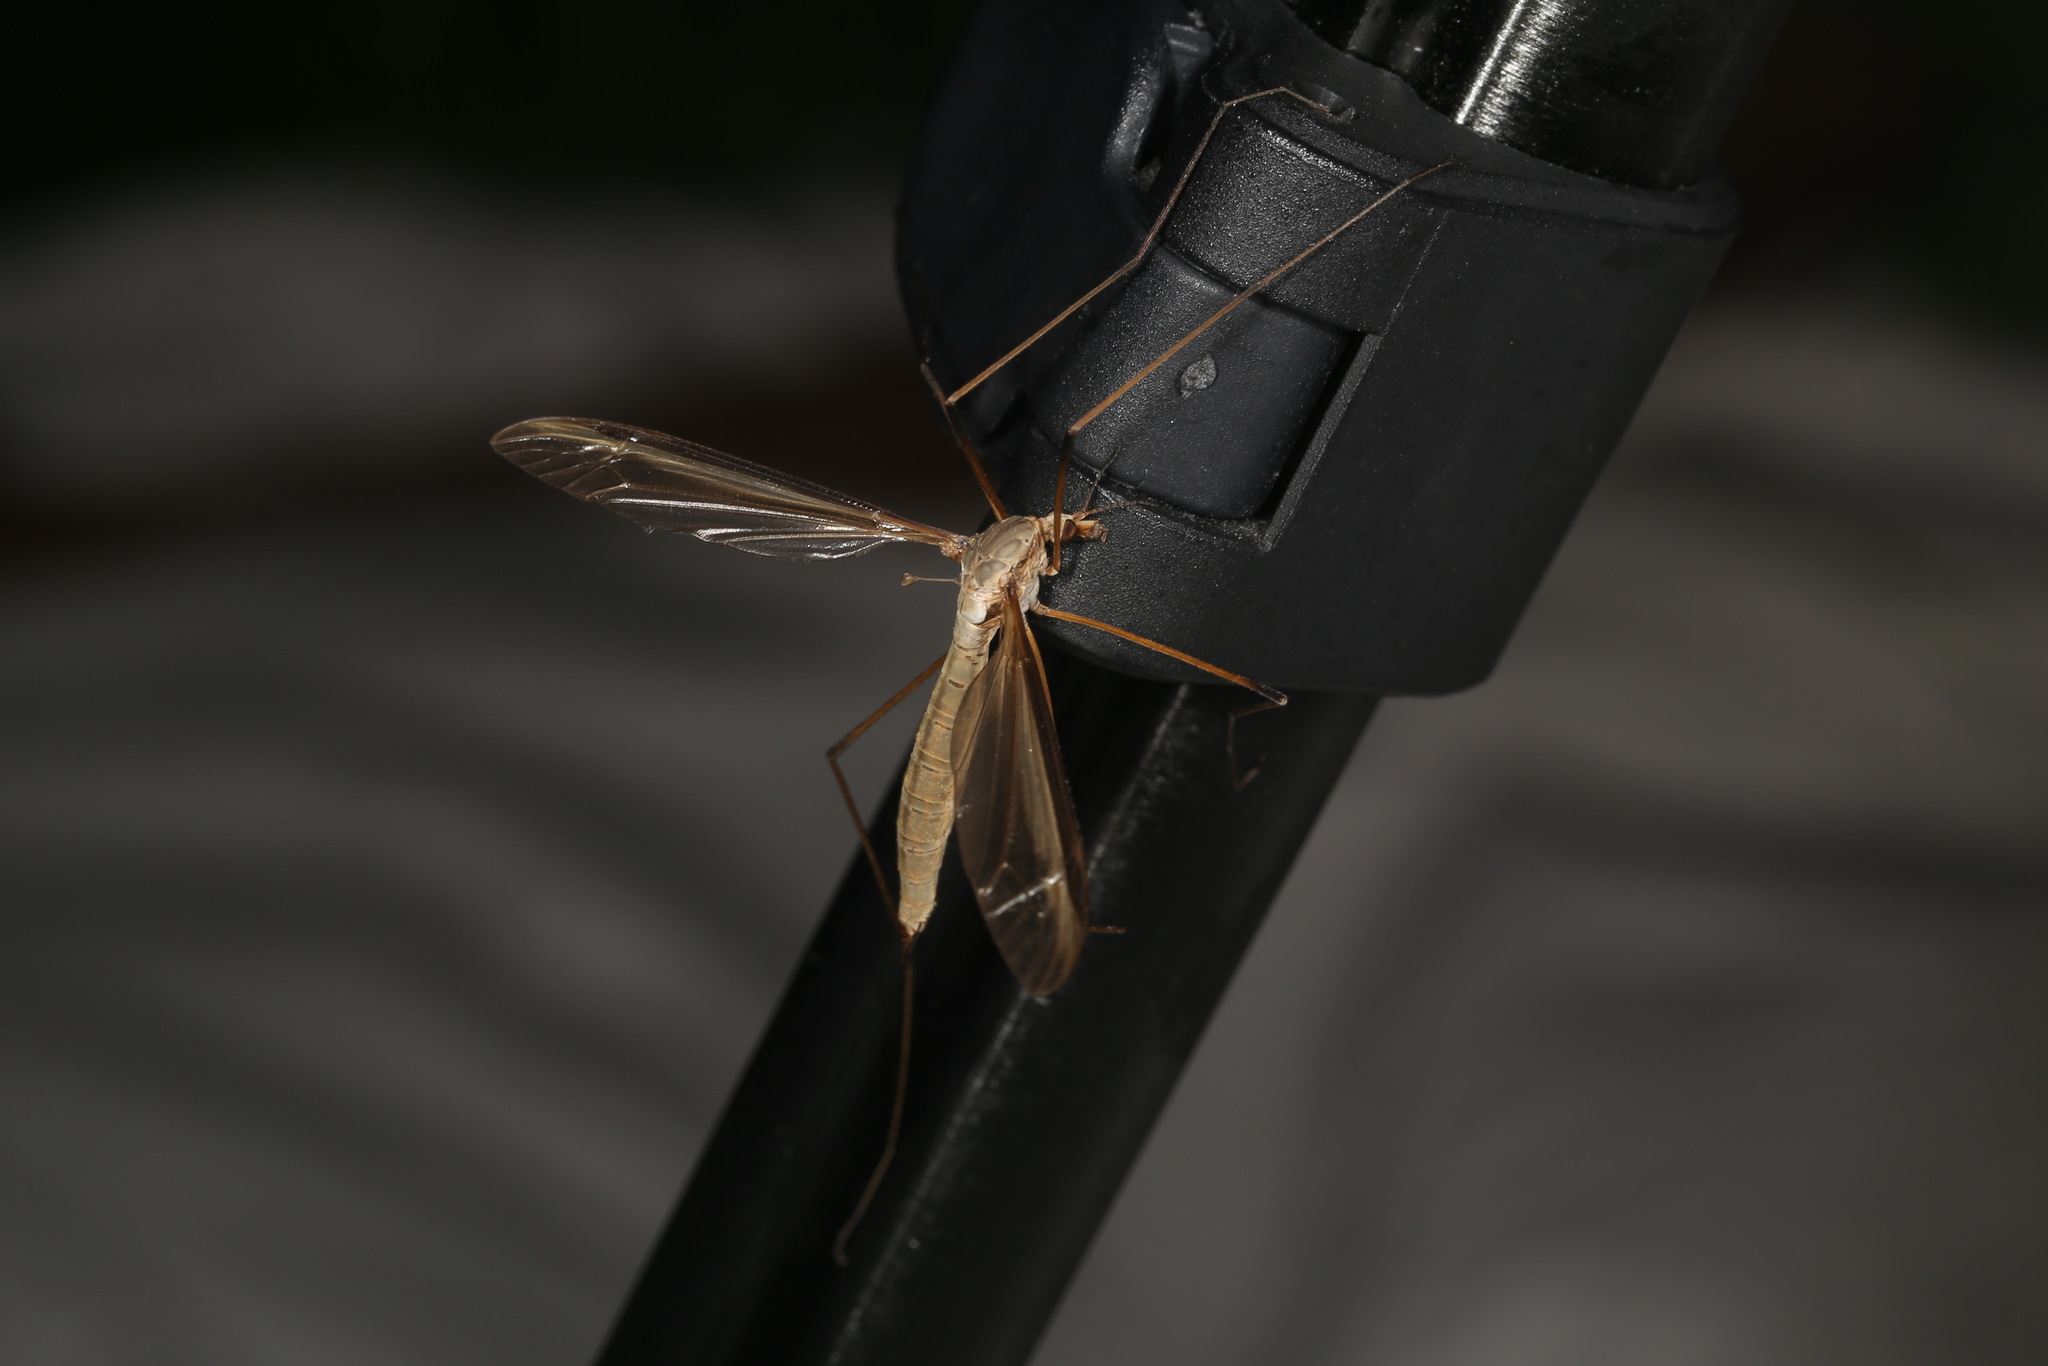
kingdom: Animalia
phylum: Arthropoda
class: Insecta
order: Diptera
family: Tipulidae
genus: Tipula
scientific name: Tipula oleracea
